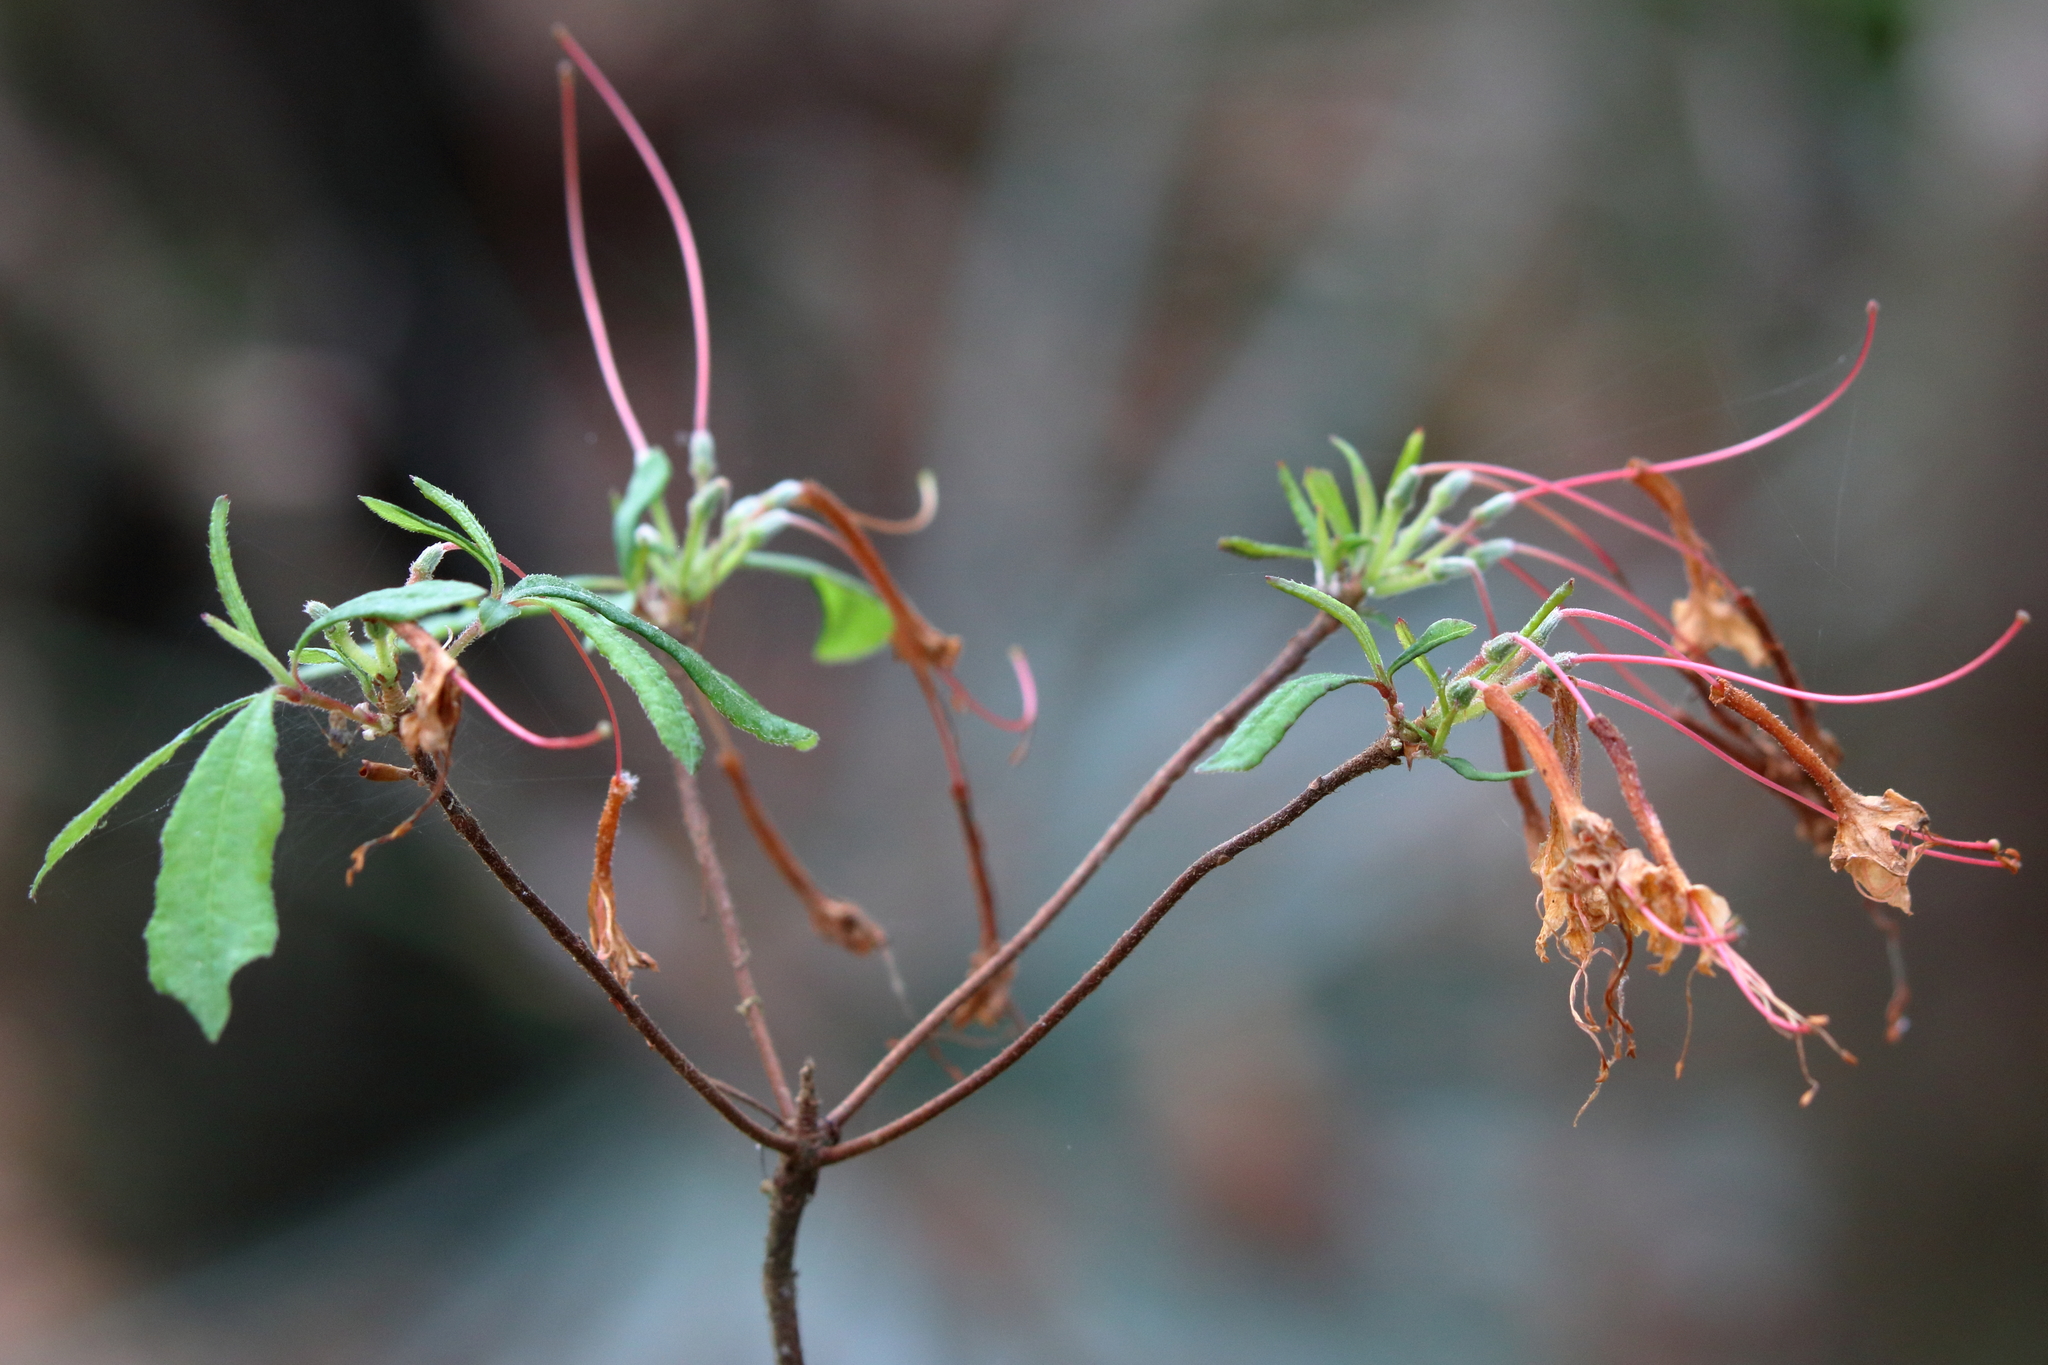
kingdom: Plantae
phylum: Tracheophyta
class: Magnoliopsida
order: Ericales
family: Ericaceae
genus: Rhododendron
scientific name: Rhododendron austrinum
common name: Florida azalea
